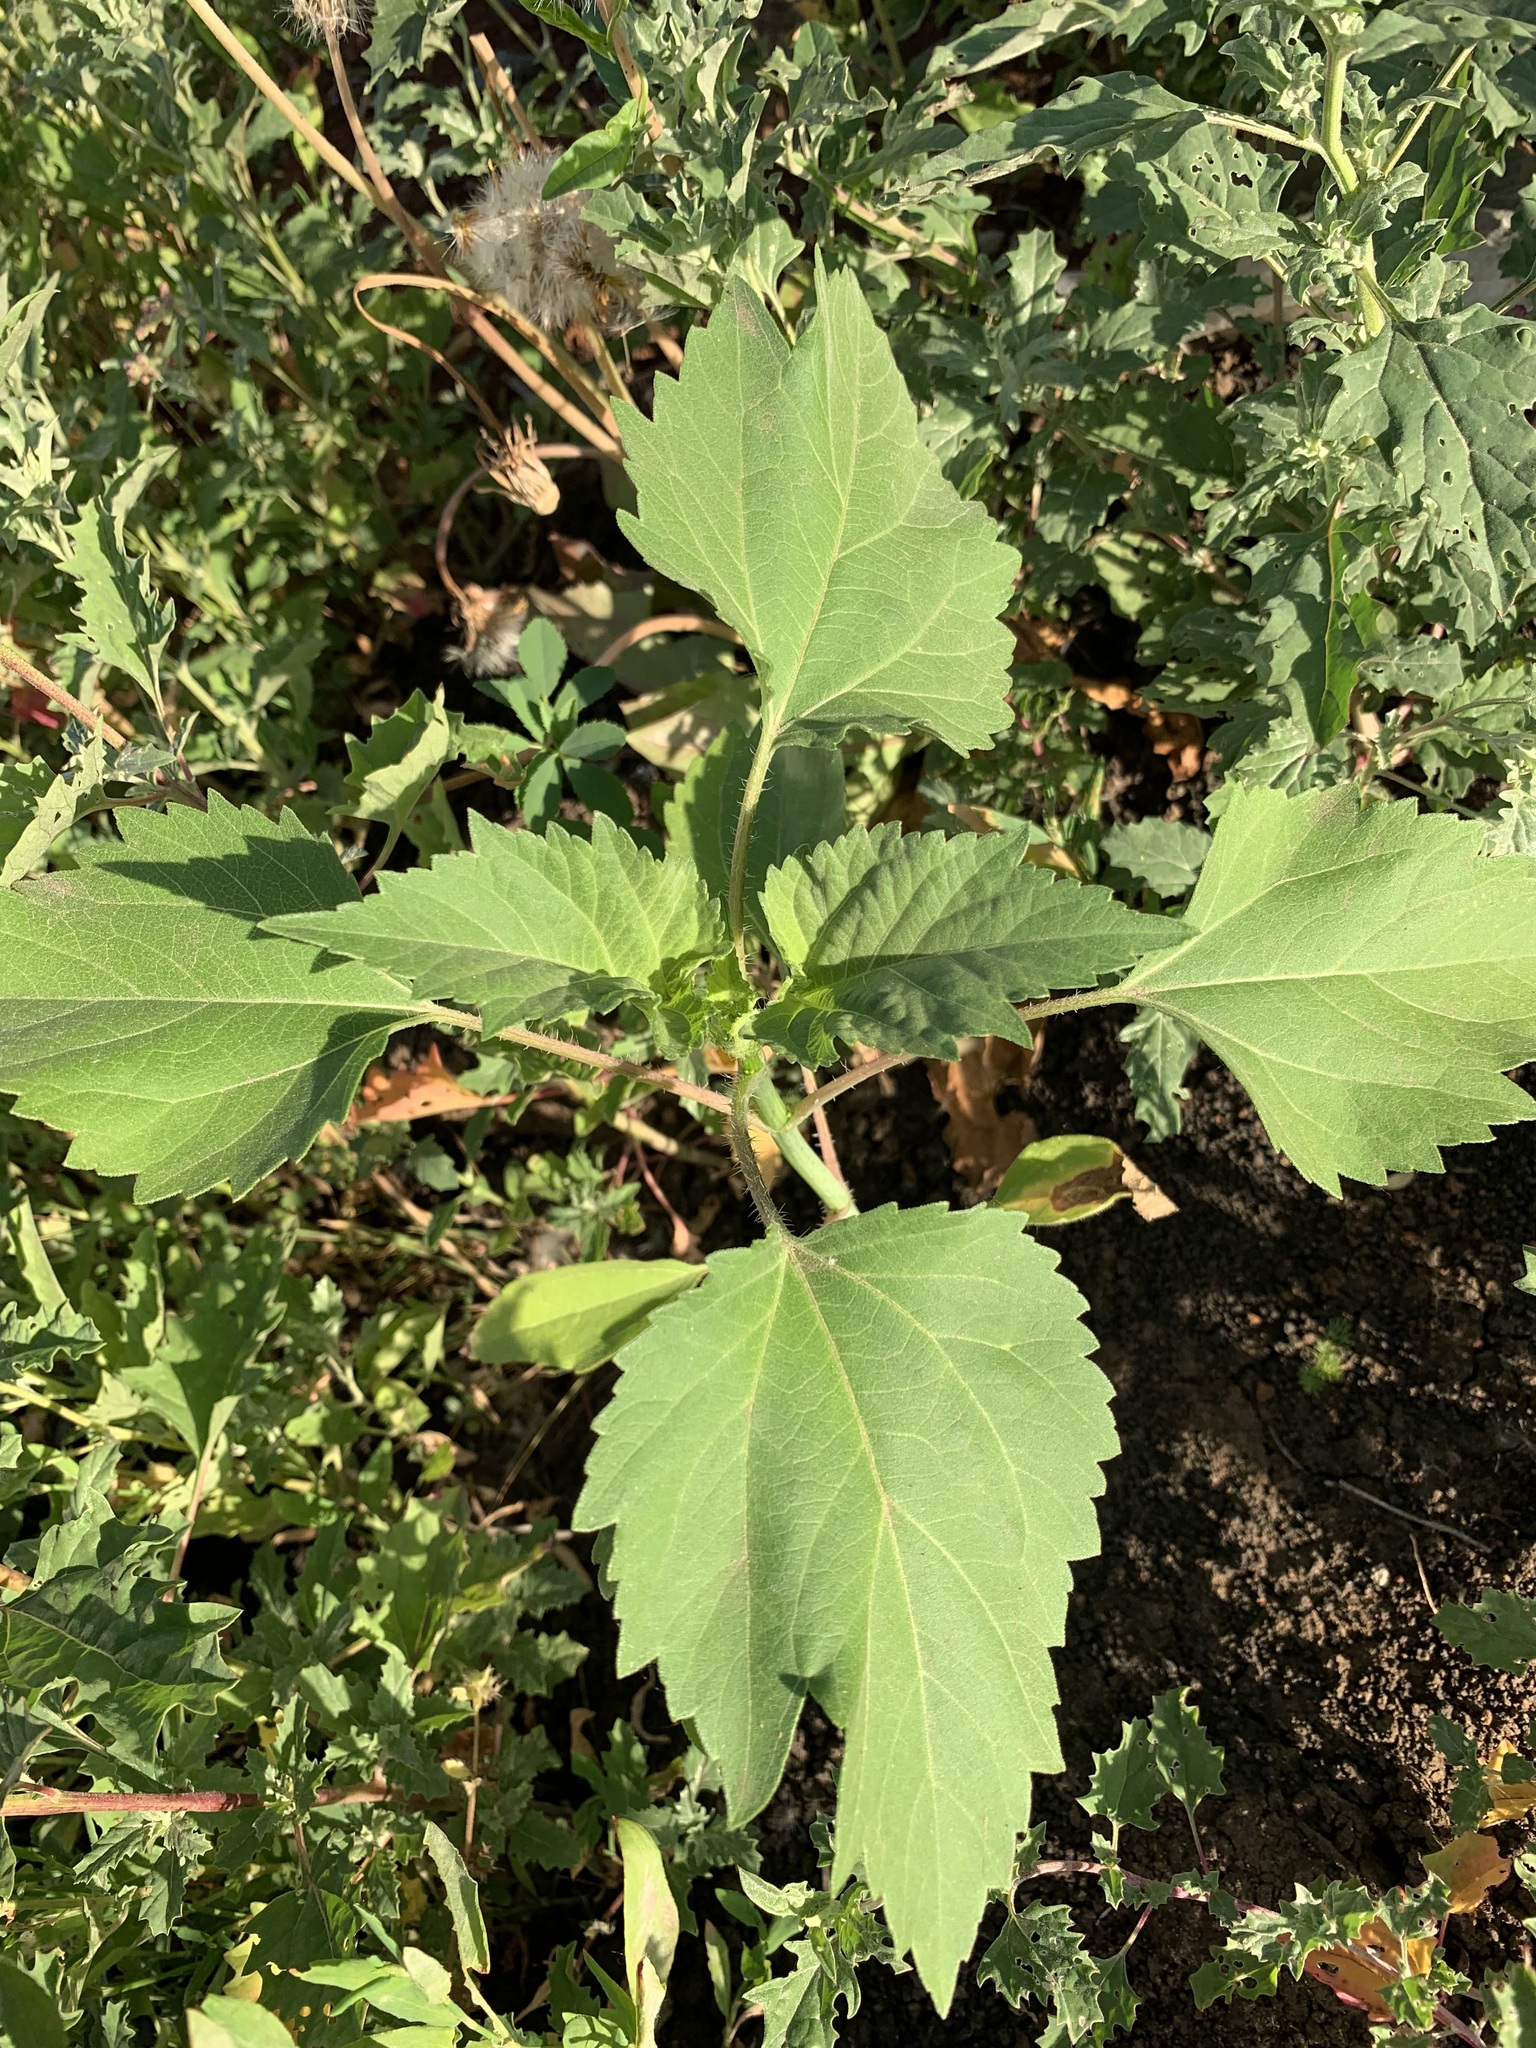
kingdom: Plantae
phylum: Tracheophyta
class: Magnoliopsida
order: Asterales
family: Asteraceae
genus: Cyclachaena
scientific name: Cyclachaena xanthiifolia
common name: Giant sumpweed
